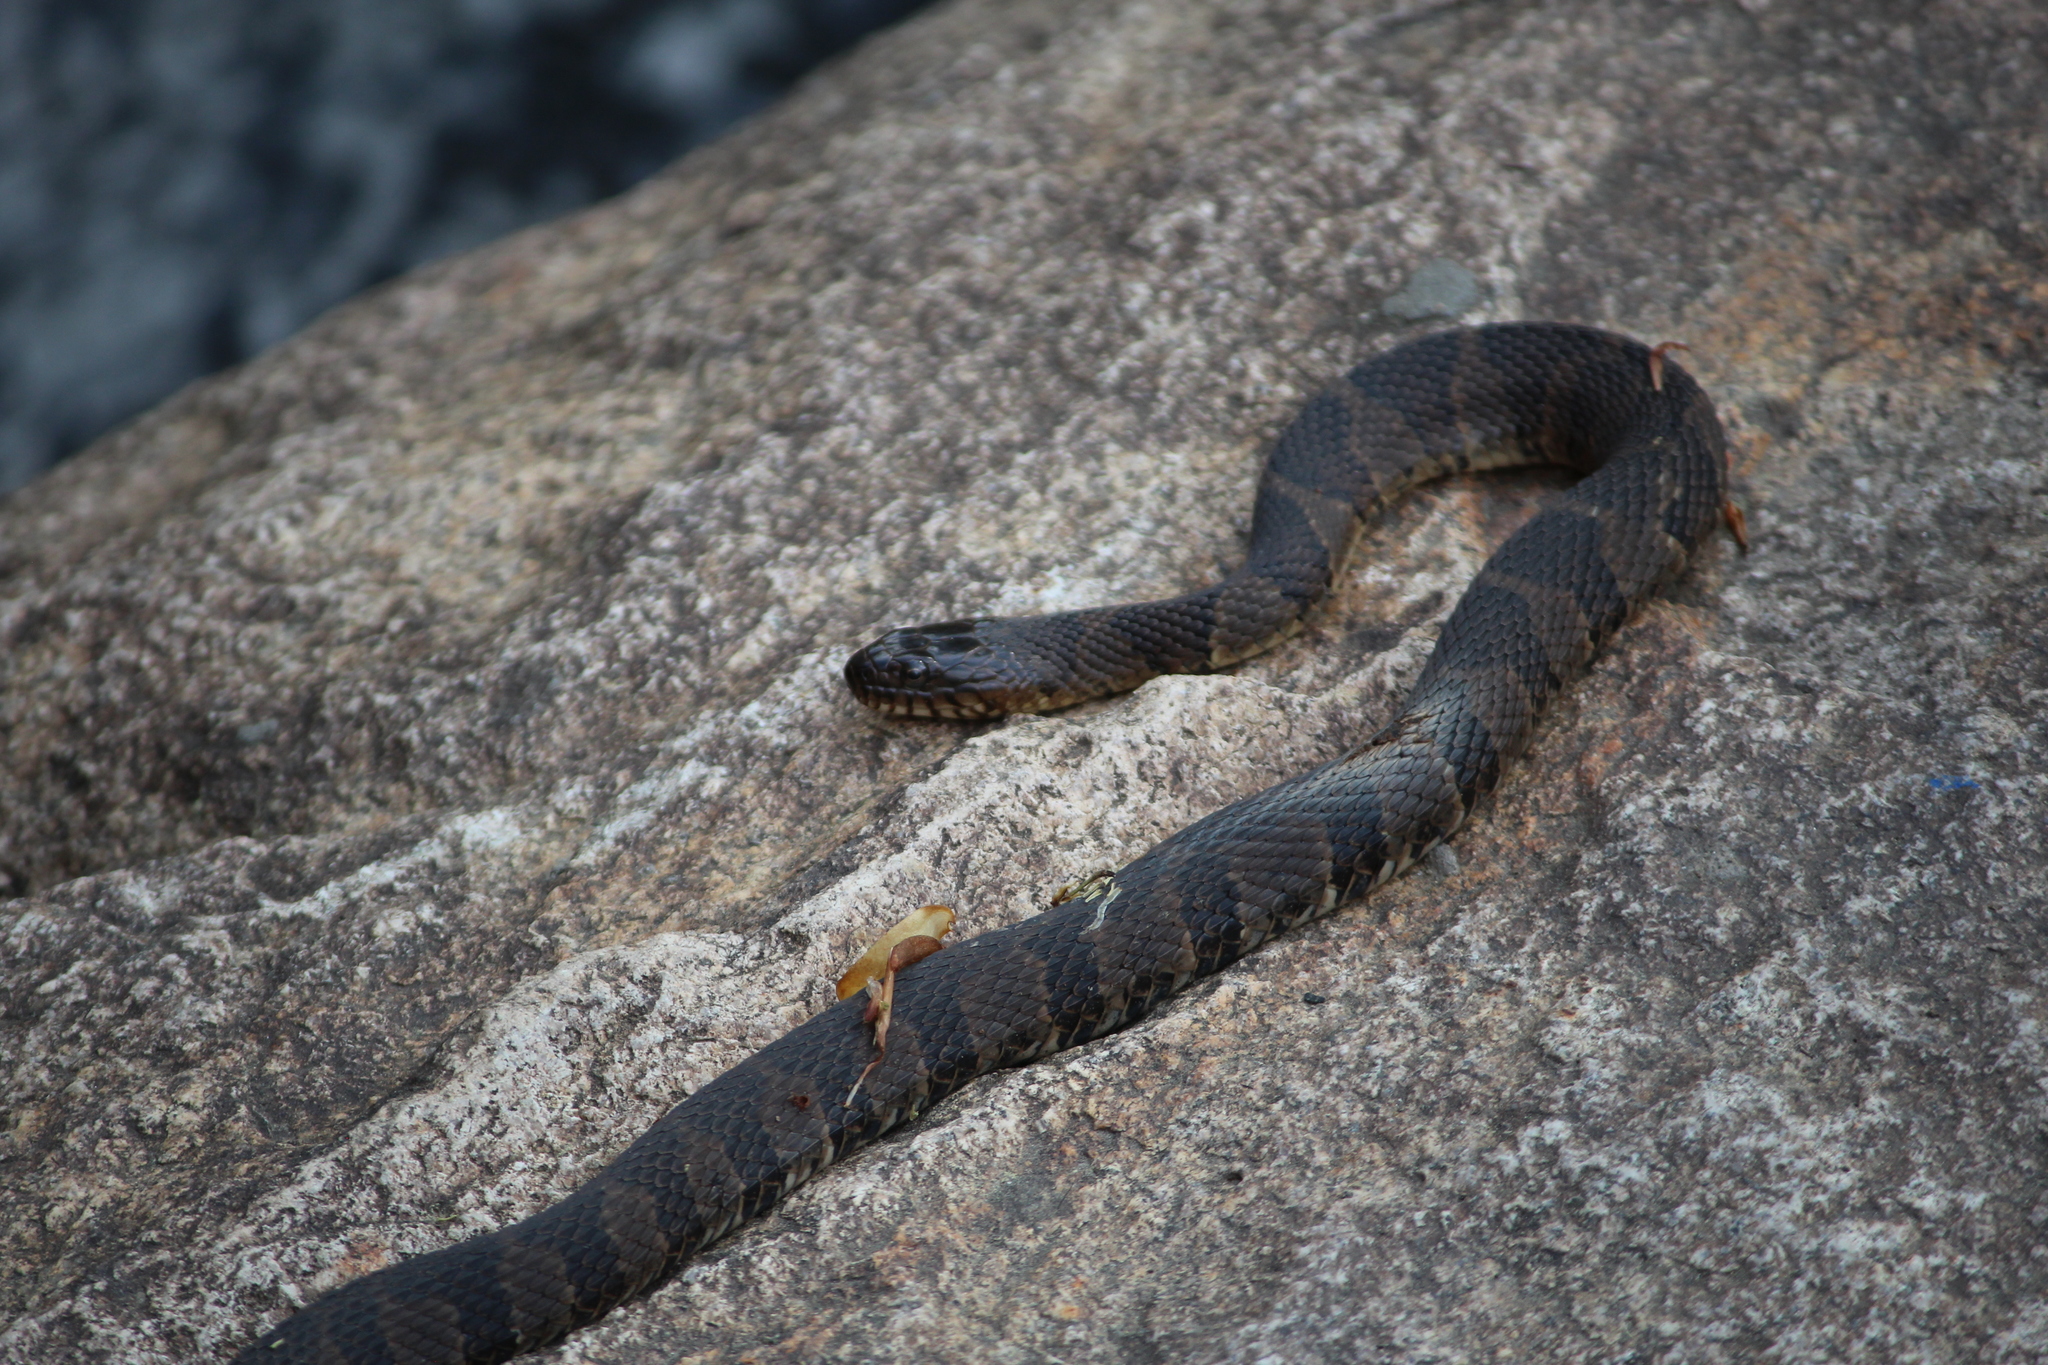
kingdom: Animalia
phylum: Chordata
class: Squamata
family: Colubridae
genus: Nerodia
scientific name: Nerodia sipedon
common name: Northern water snake
